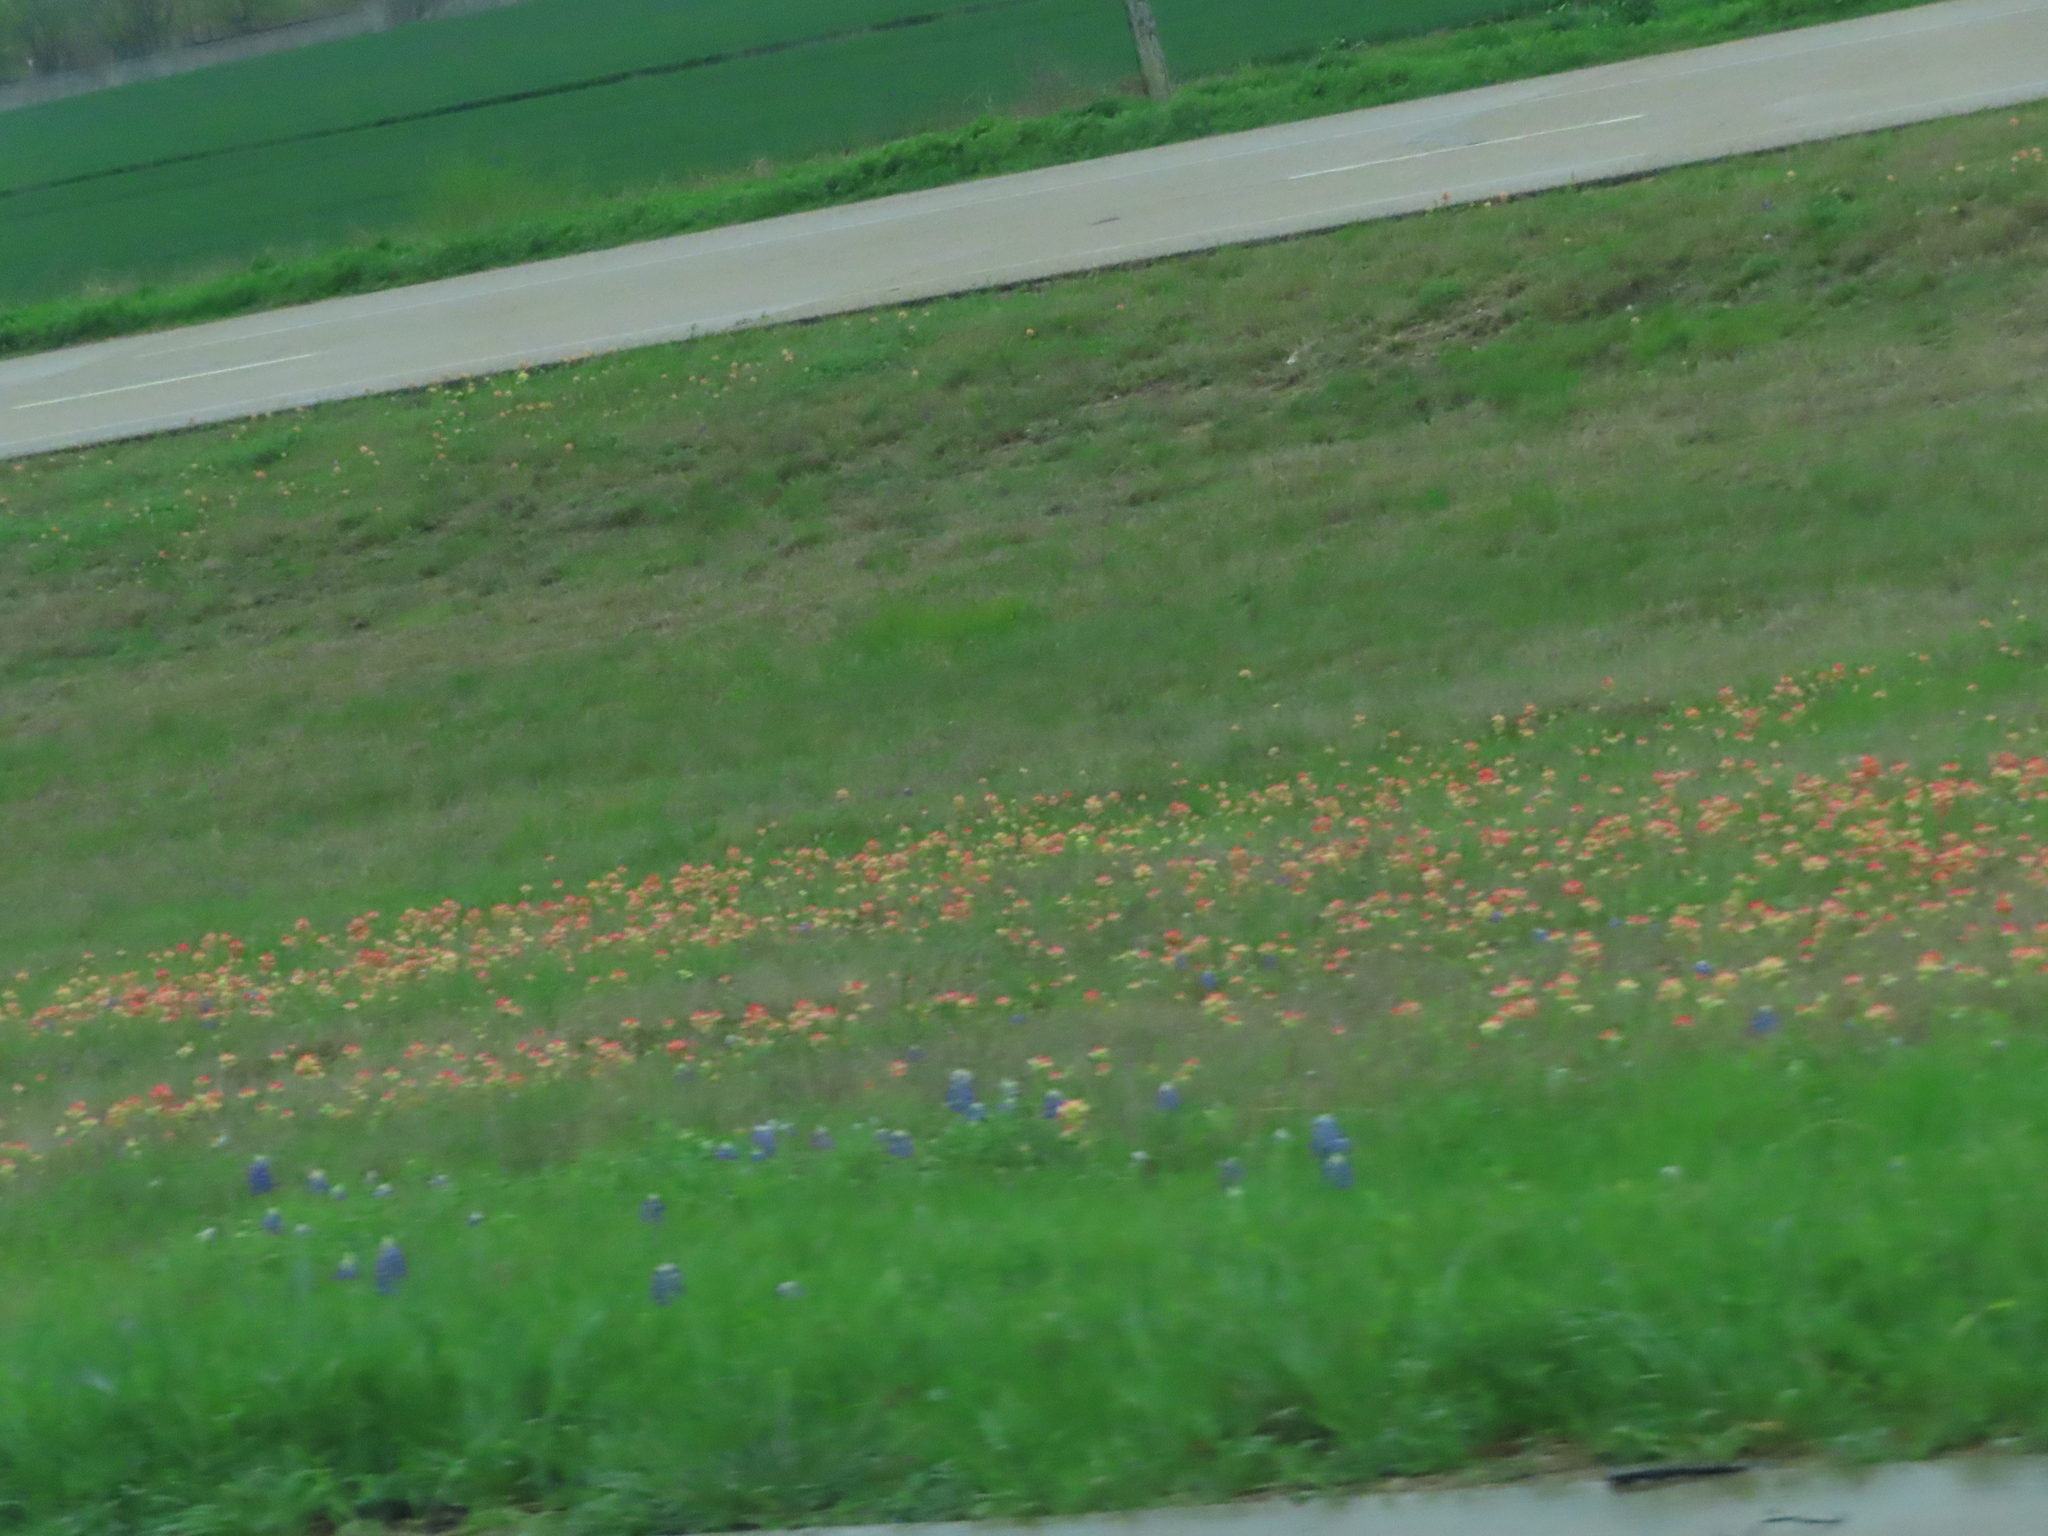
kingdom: Plantae
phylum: Tracheophyta
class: Magnoliopsida
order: Lamiales
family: Orobanchaceae
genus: Castilleja
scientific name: Castilleja indivisa
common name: Texas paintbrush
